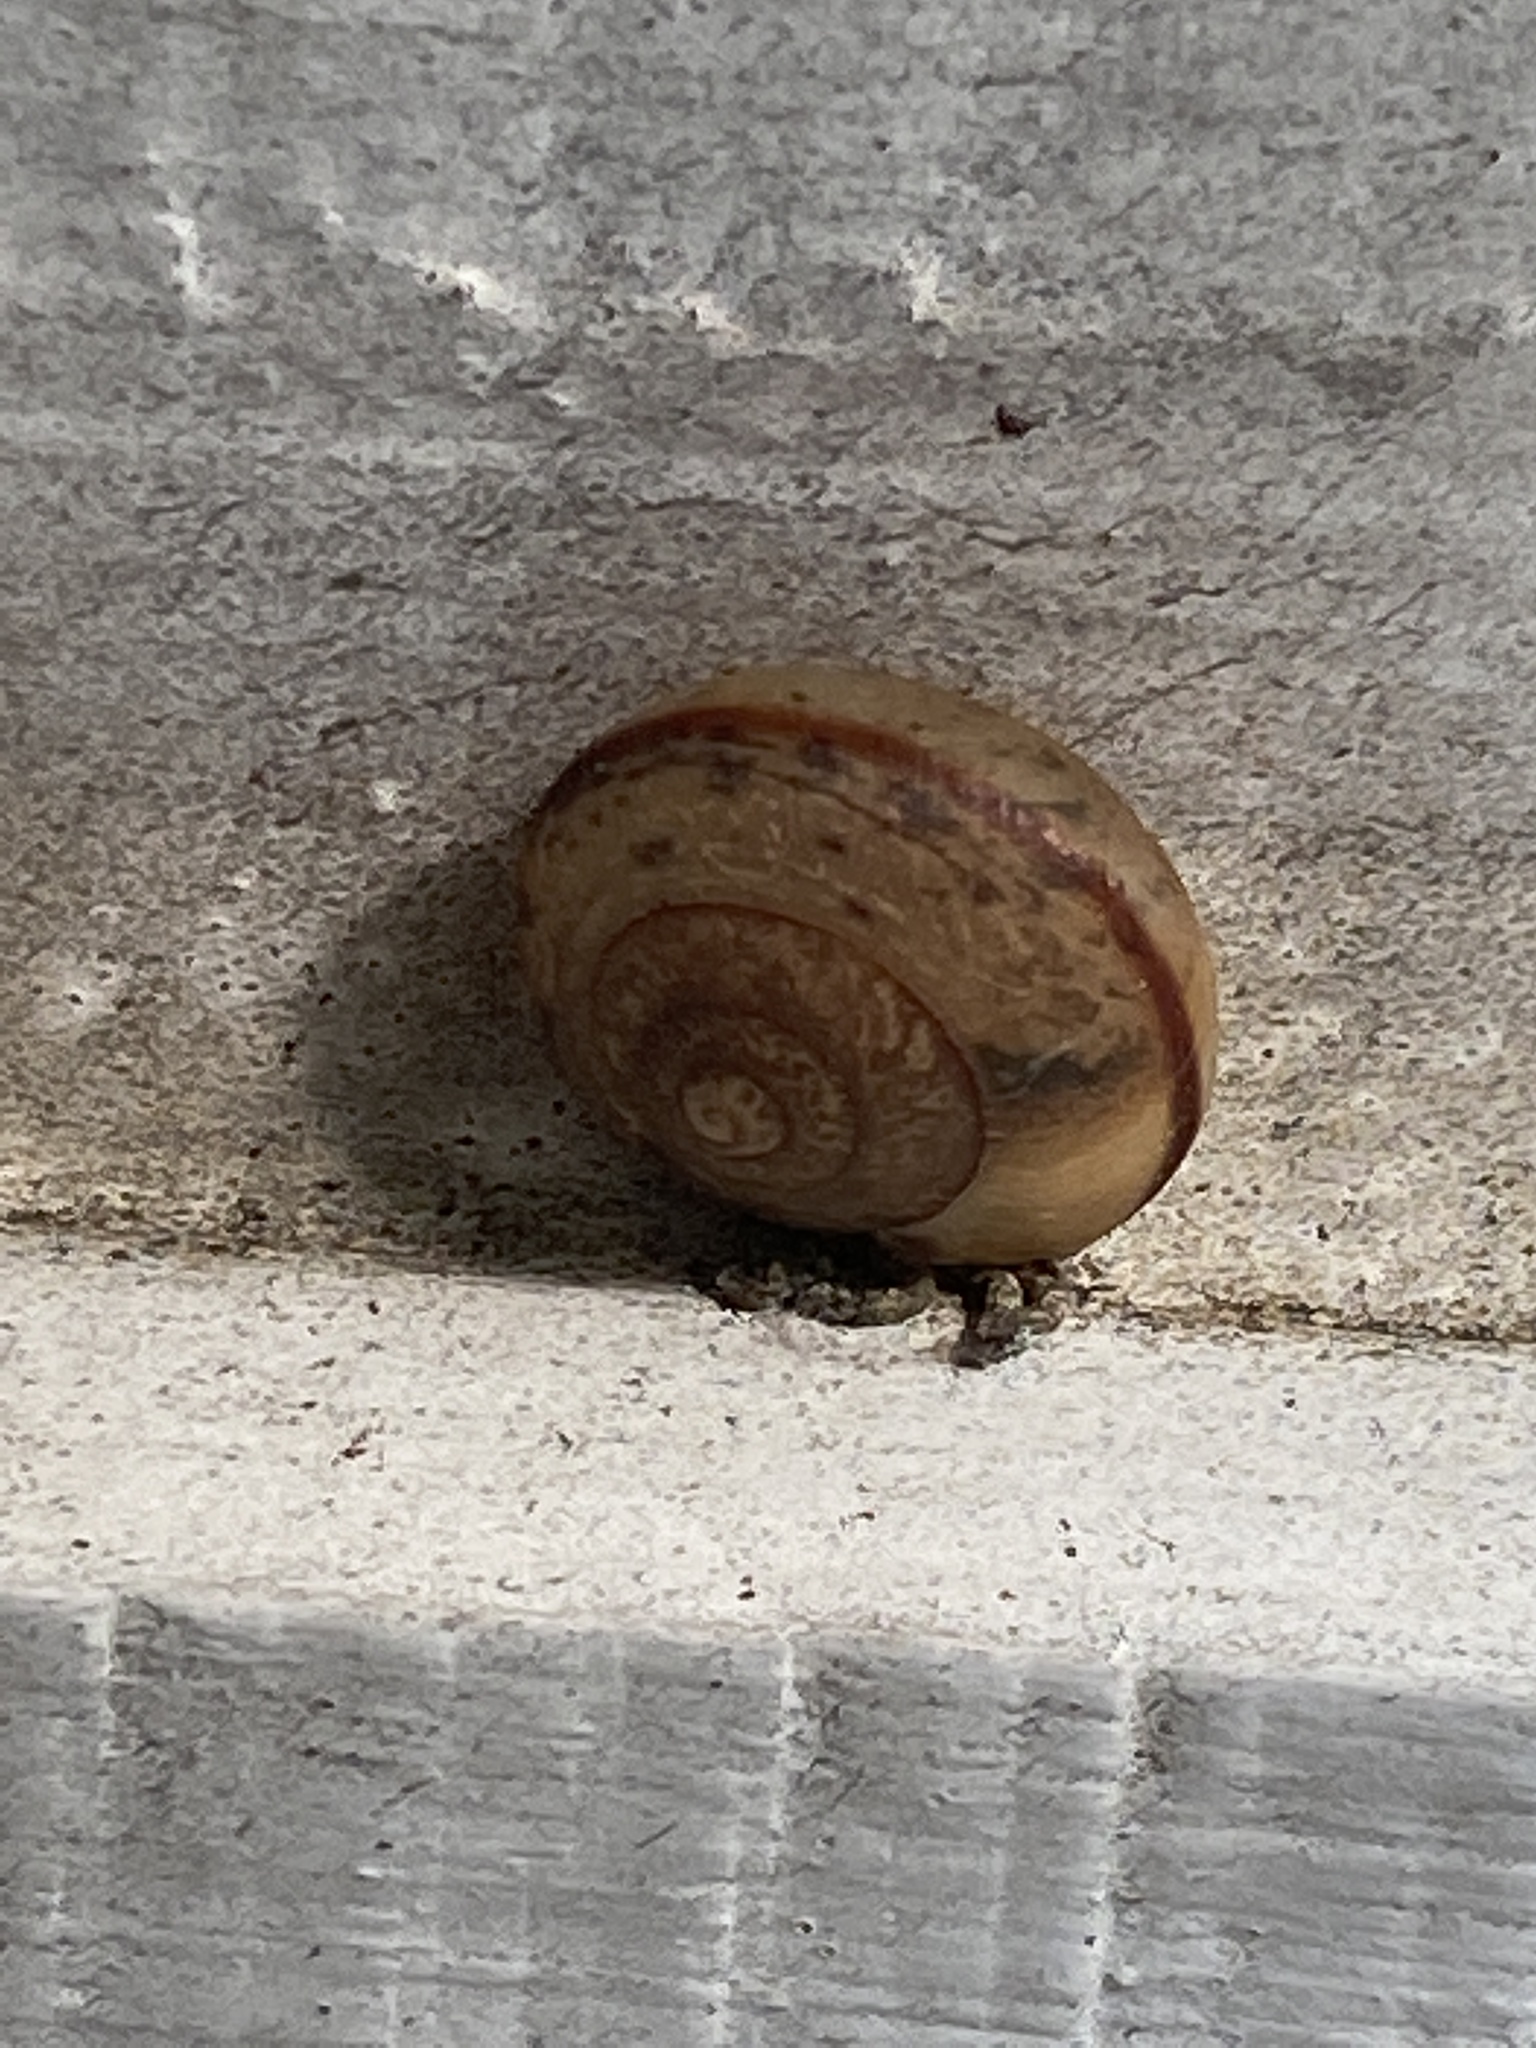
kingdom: Animalia
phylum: Mollusca
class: Gastropoda
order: Stylommatophora
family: Camaenidae
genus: Bradybaena
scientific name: Bradybaena similaris
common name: Asian trampsnail
